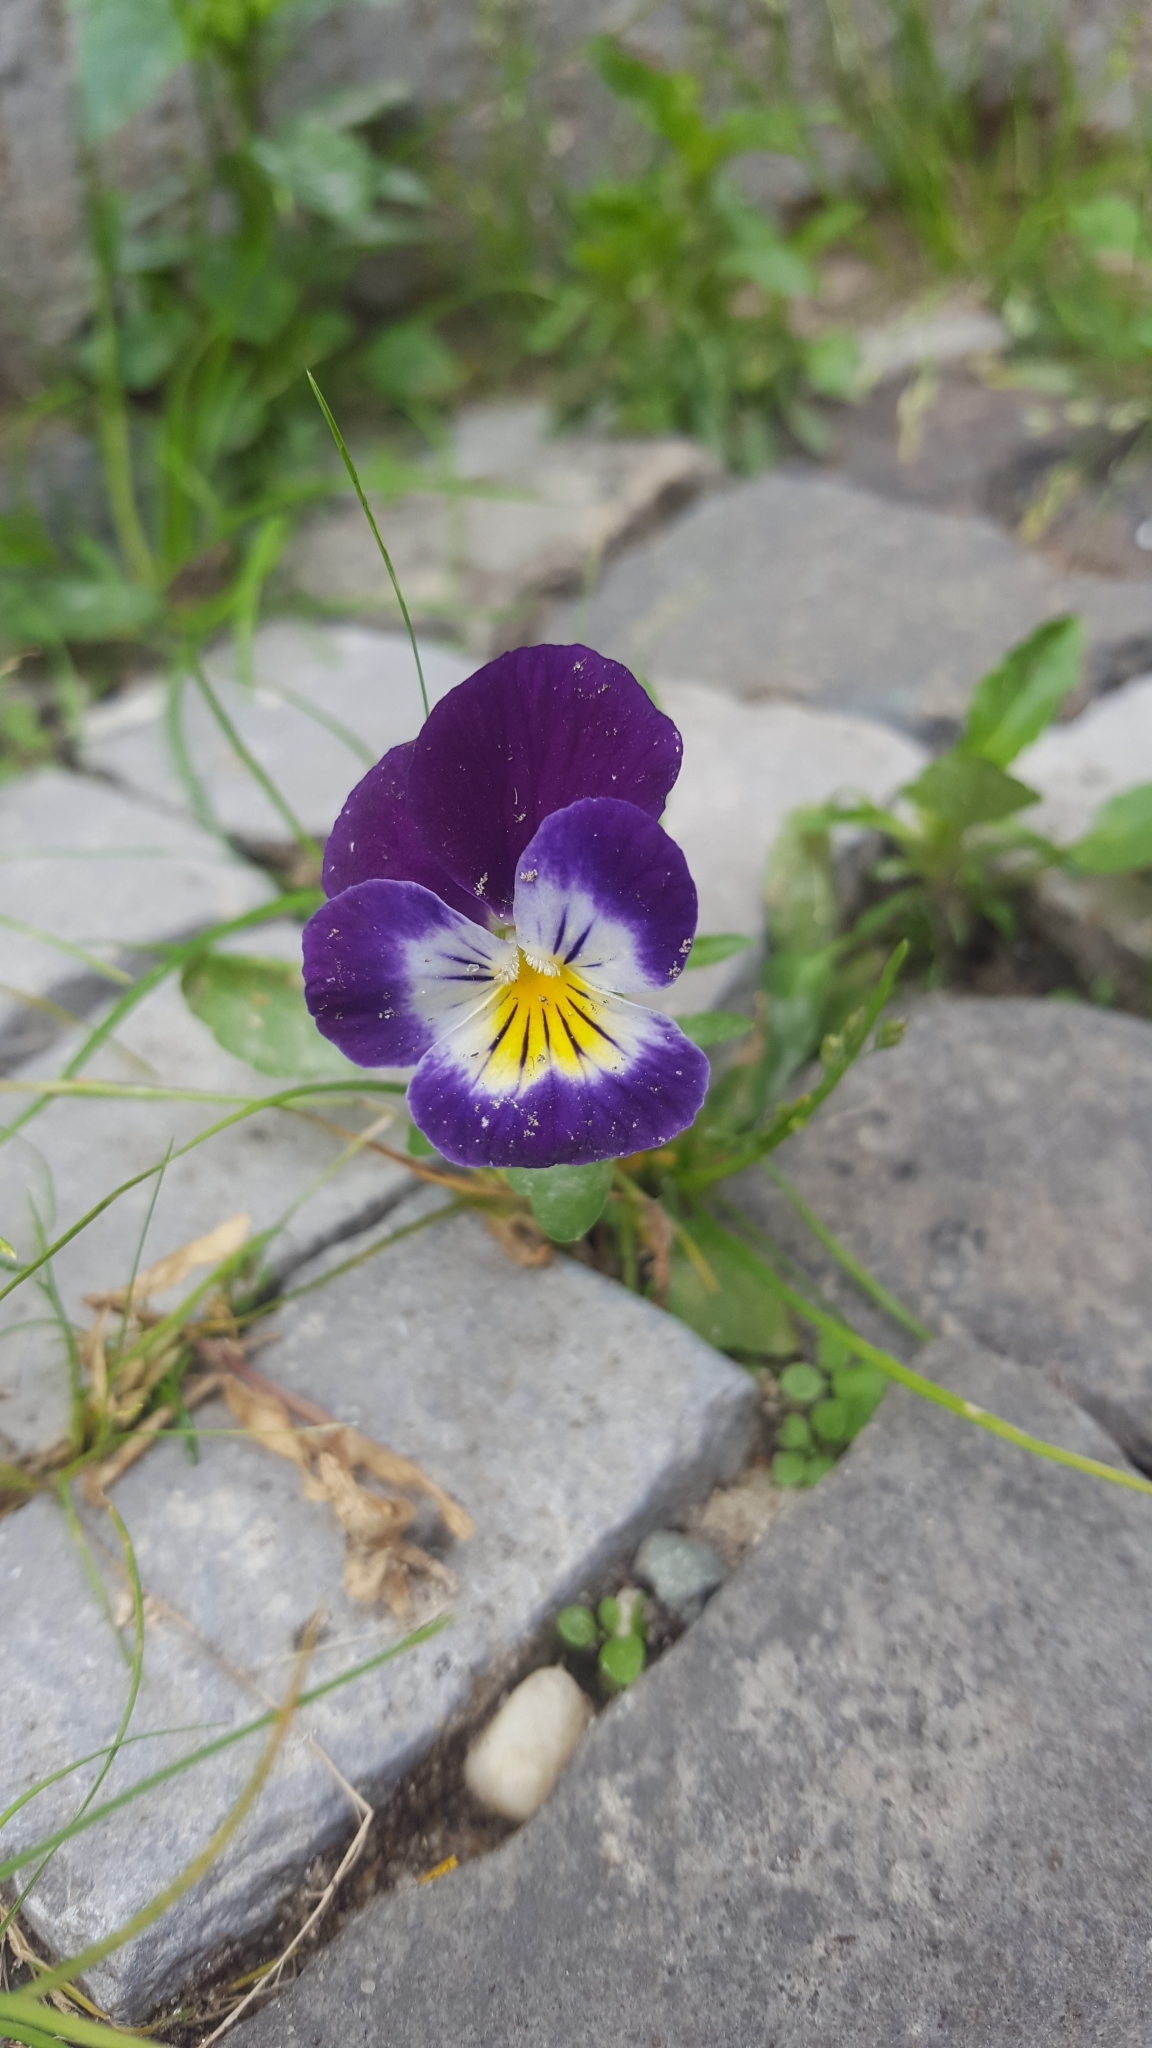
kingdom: Plantae
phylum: Tracheophyta
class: Magnoliopsida
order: Malpighiales
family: Violaceae
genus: Viola
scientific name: Viola wittrockiana
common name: Garden pansy
